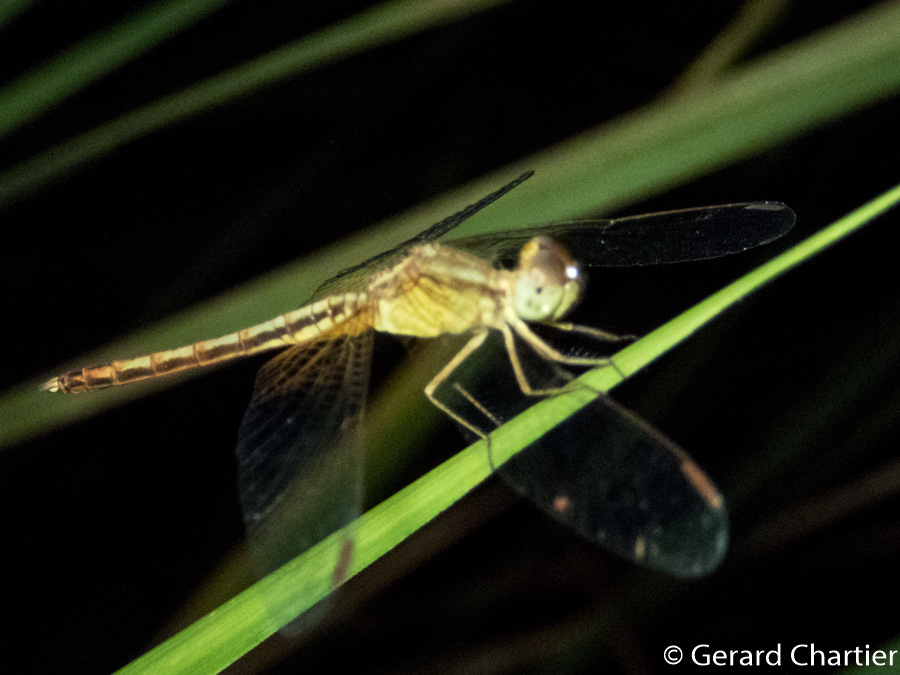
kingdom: Animalia
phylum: Arthropoda
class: Insecta
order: Odonata
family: Libellulidae
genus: Neurothemis
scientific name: Neurothemis intermedia
